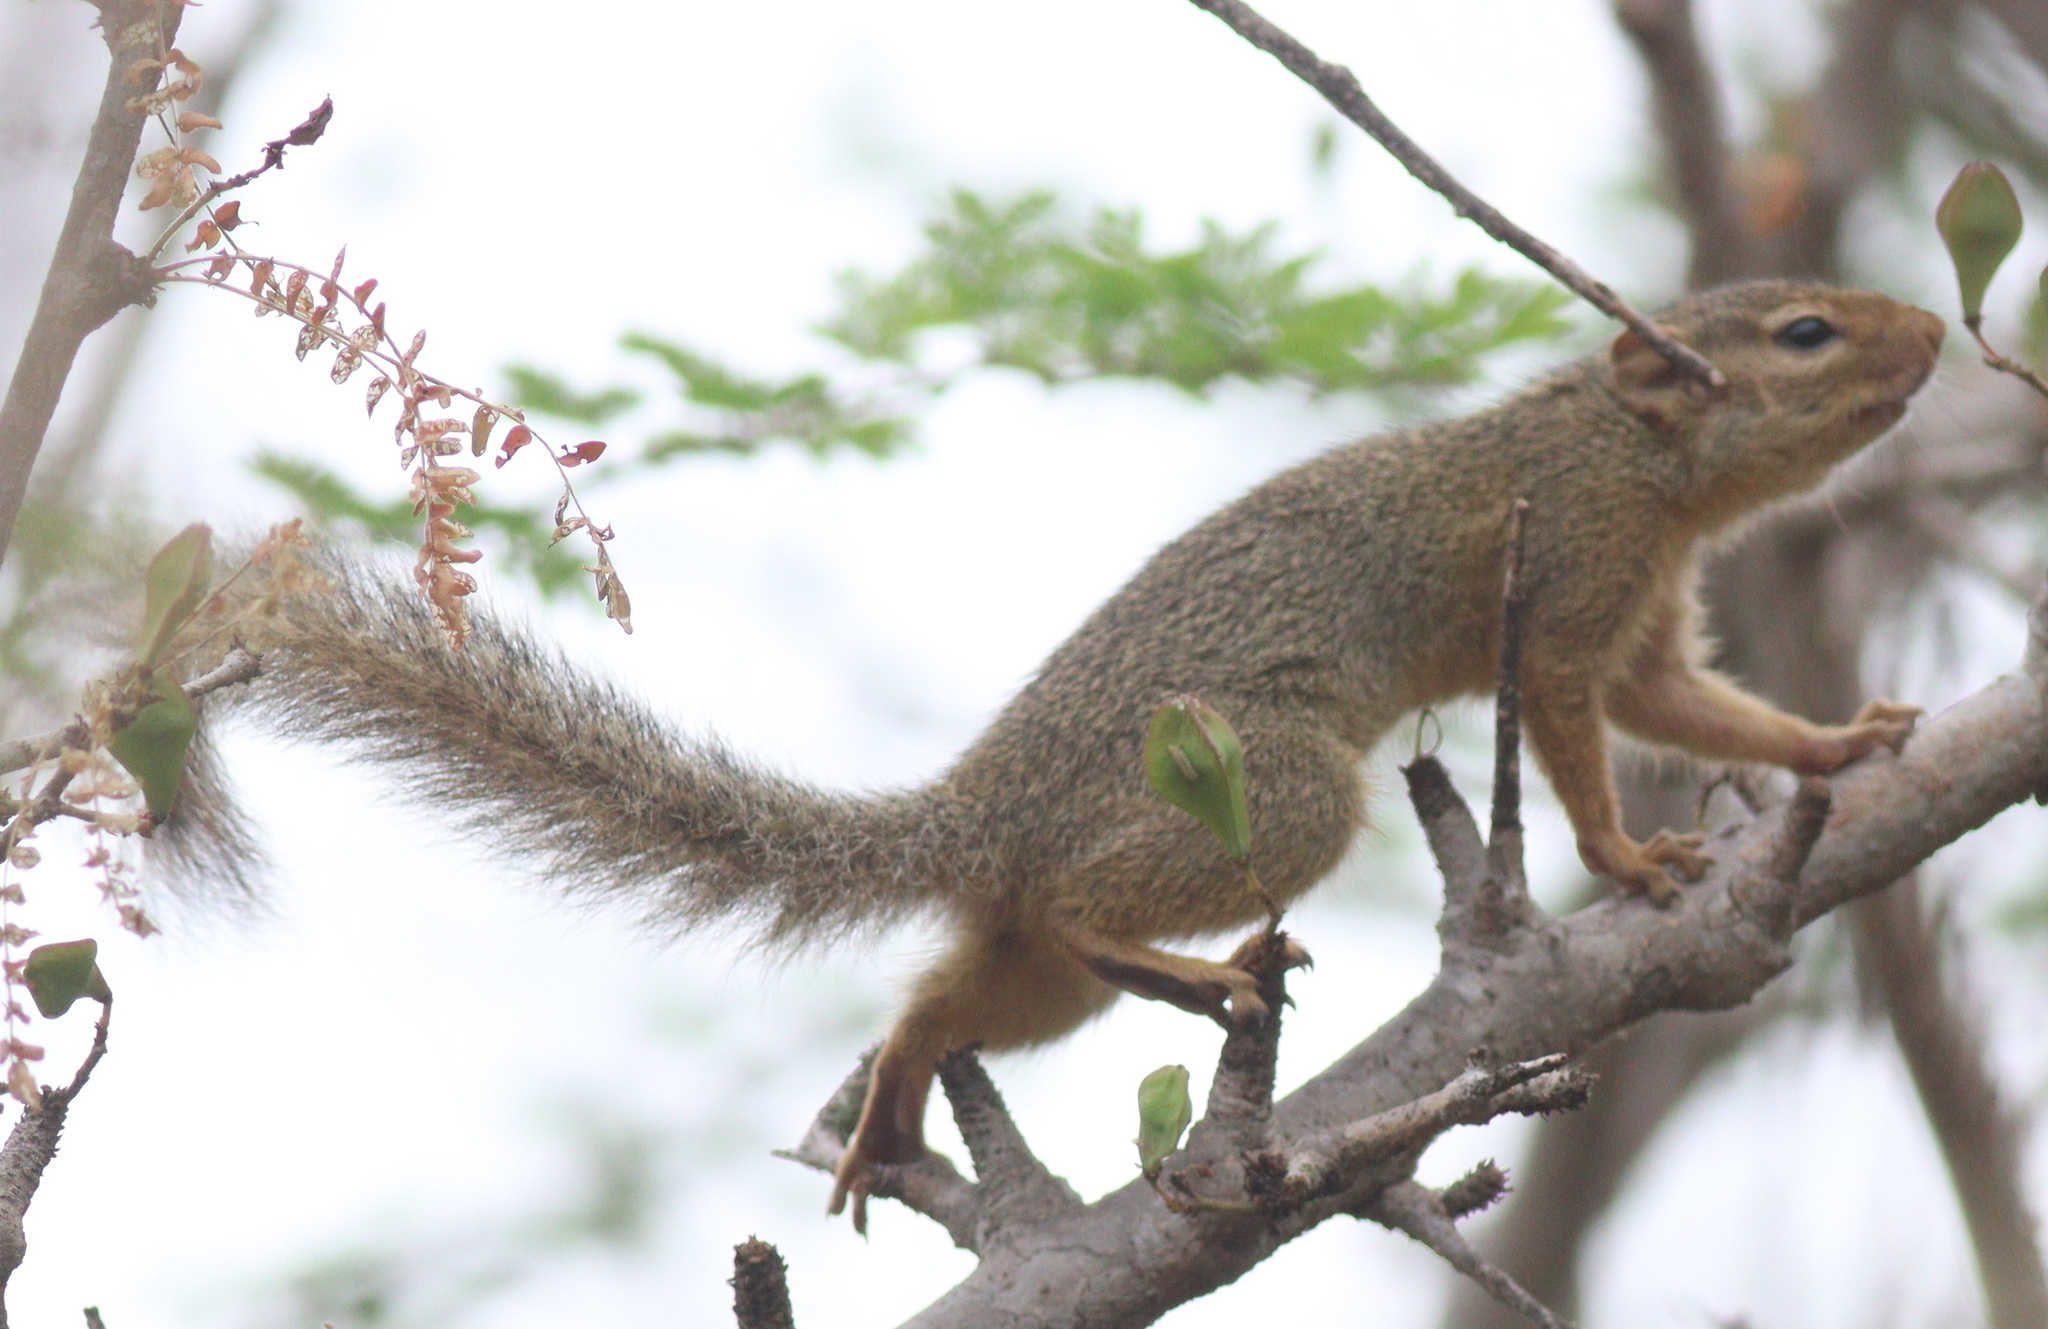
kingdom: Animalia
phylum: Chordata
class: Mammalia
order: Rodentia
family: Sciuridae
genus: Paraxerus
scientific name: Paraxerus ochraceus
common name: Ochre bush squirrel
